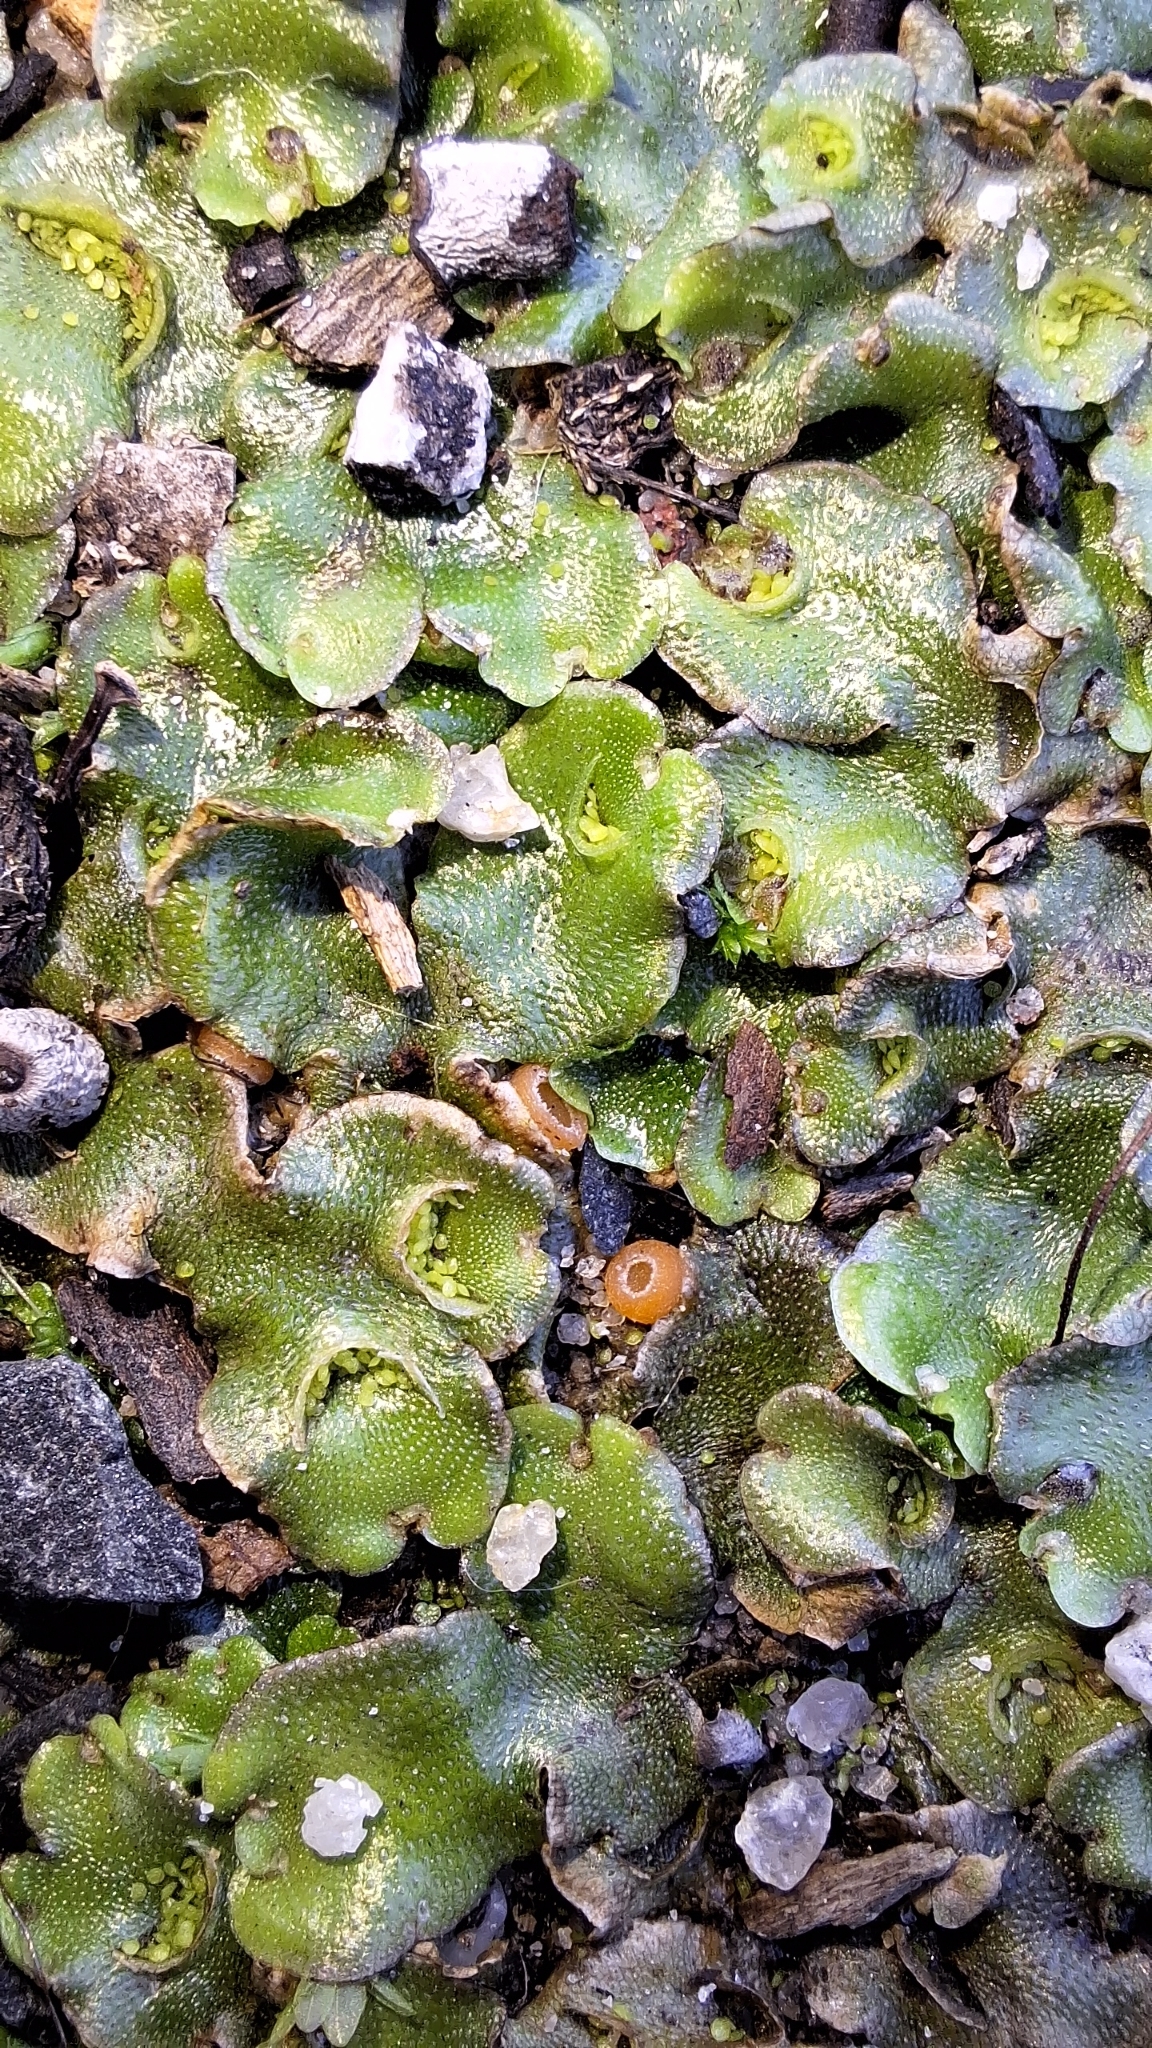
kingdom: Plantae
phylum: Marchantiophyta
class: Marchantiopsida
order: Lunulariales
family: Lunulariaceae
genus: Lunularia
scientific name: Lunularia cruciata
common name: Crescent-cup liverwort
